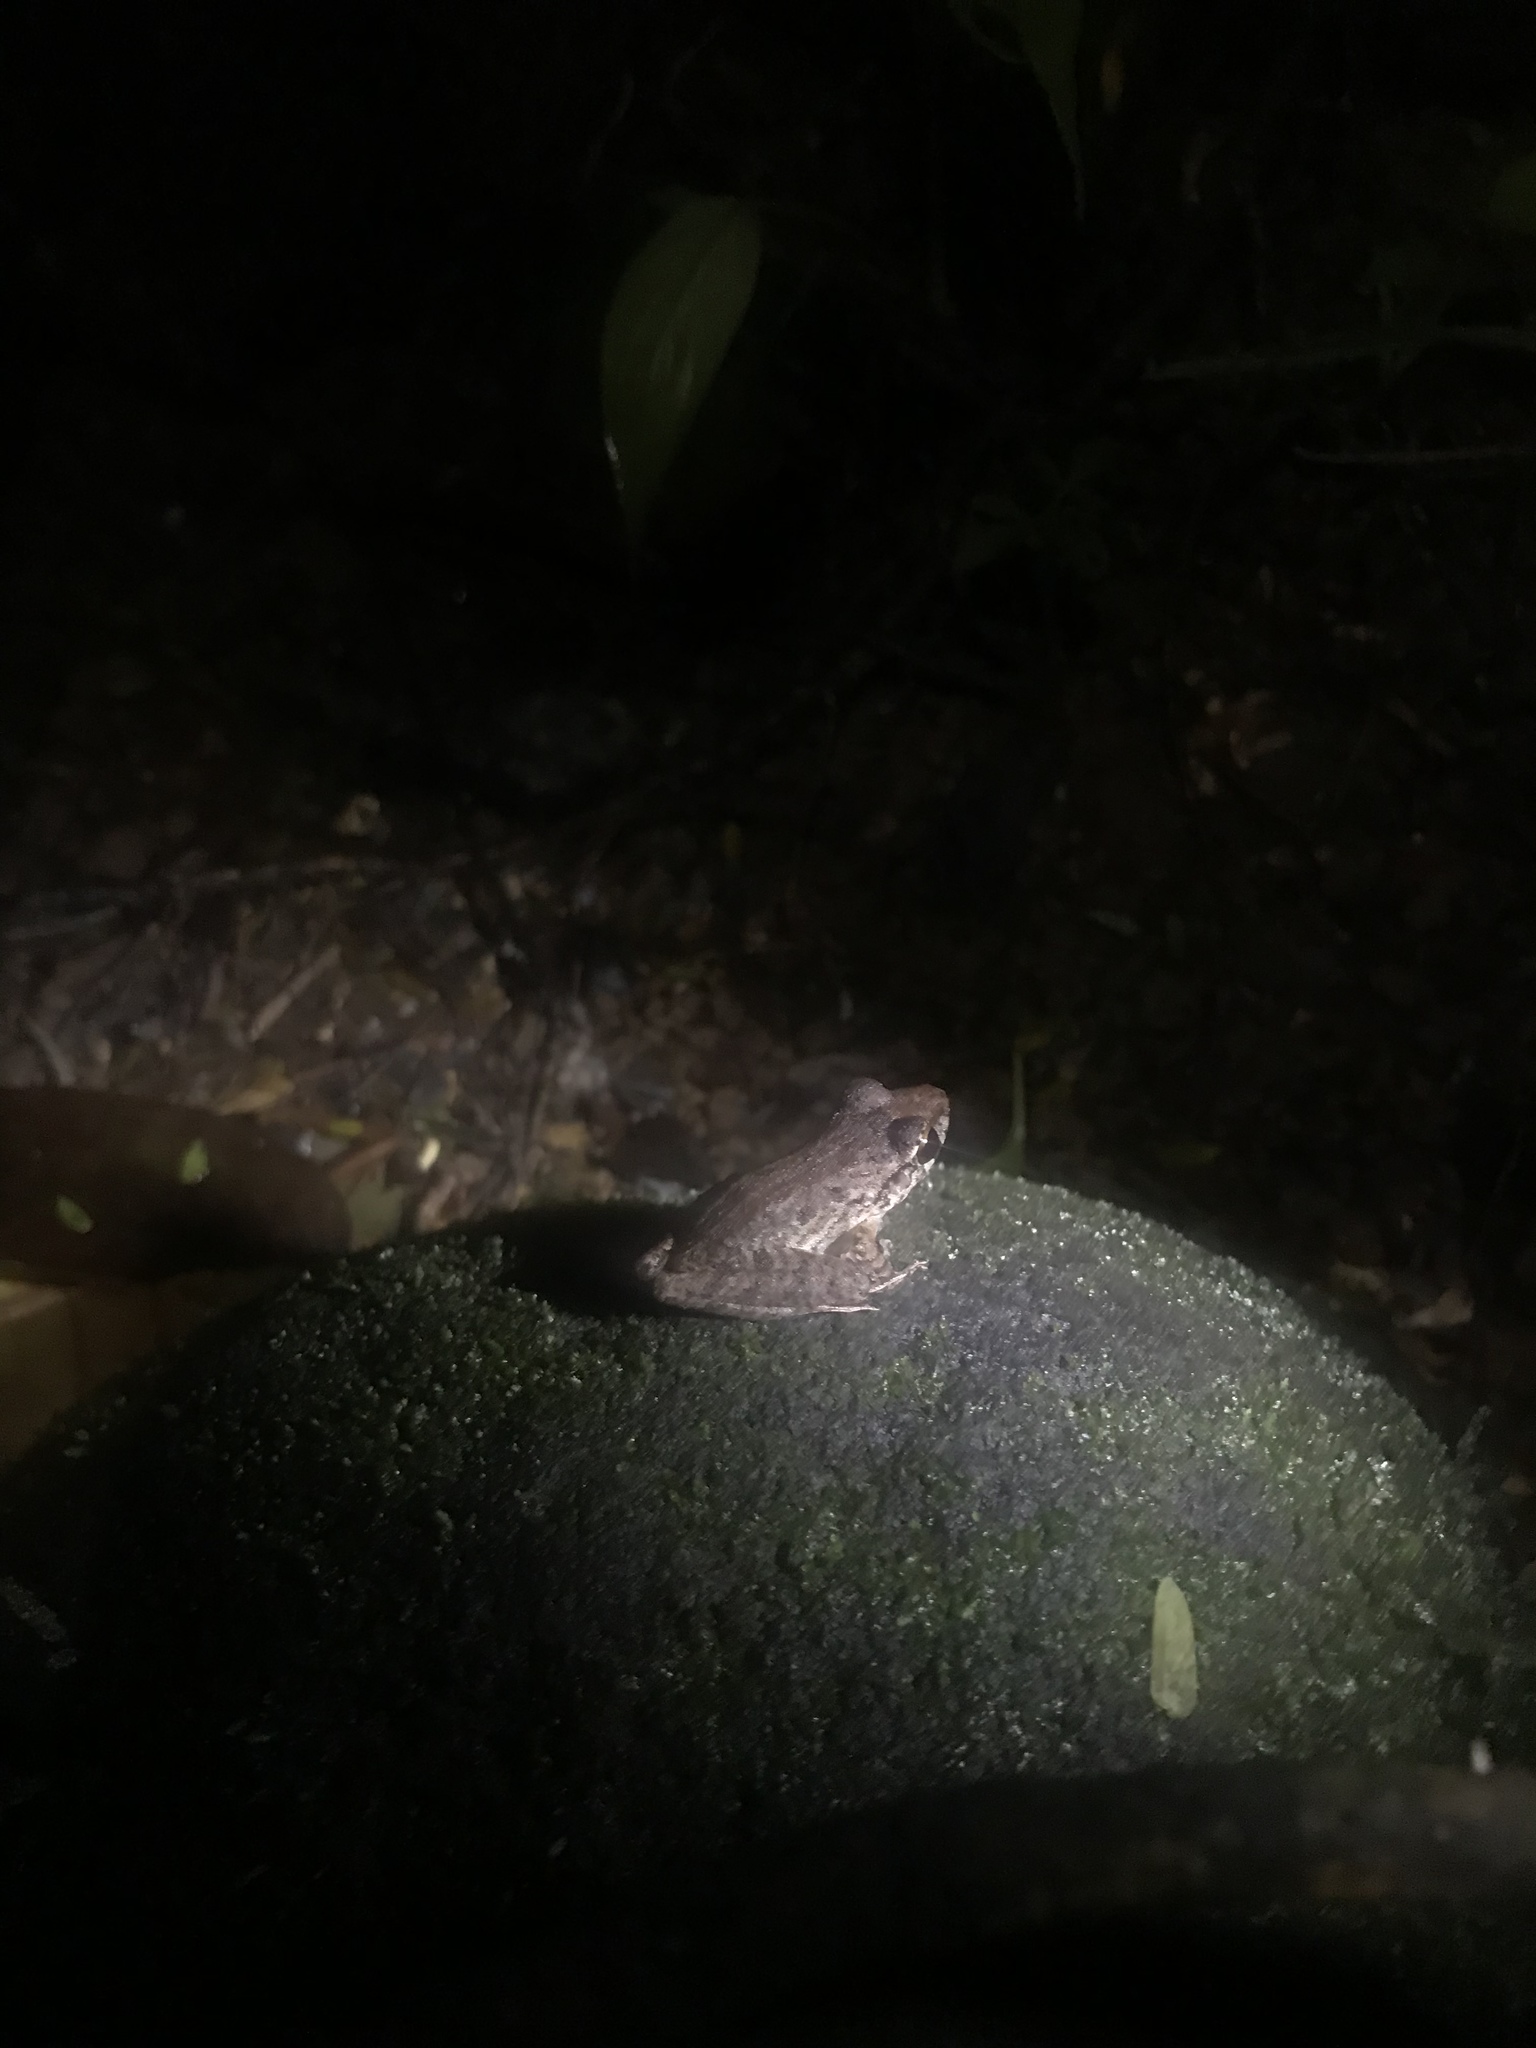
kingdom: Animalia
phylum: Chordata
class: Amphibia
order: Anura
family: Craugastoridae
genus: Craugastor
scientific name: Craugastor fitzingeri
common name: Fitzinger's robber frog
